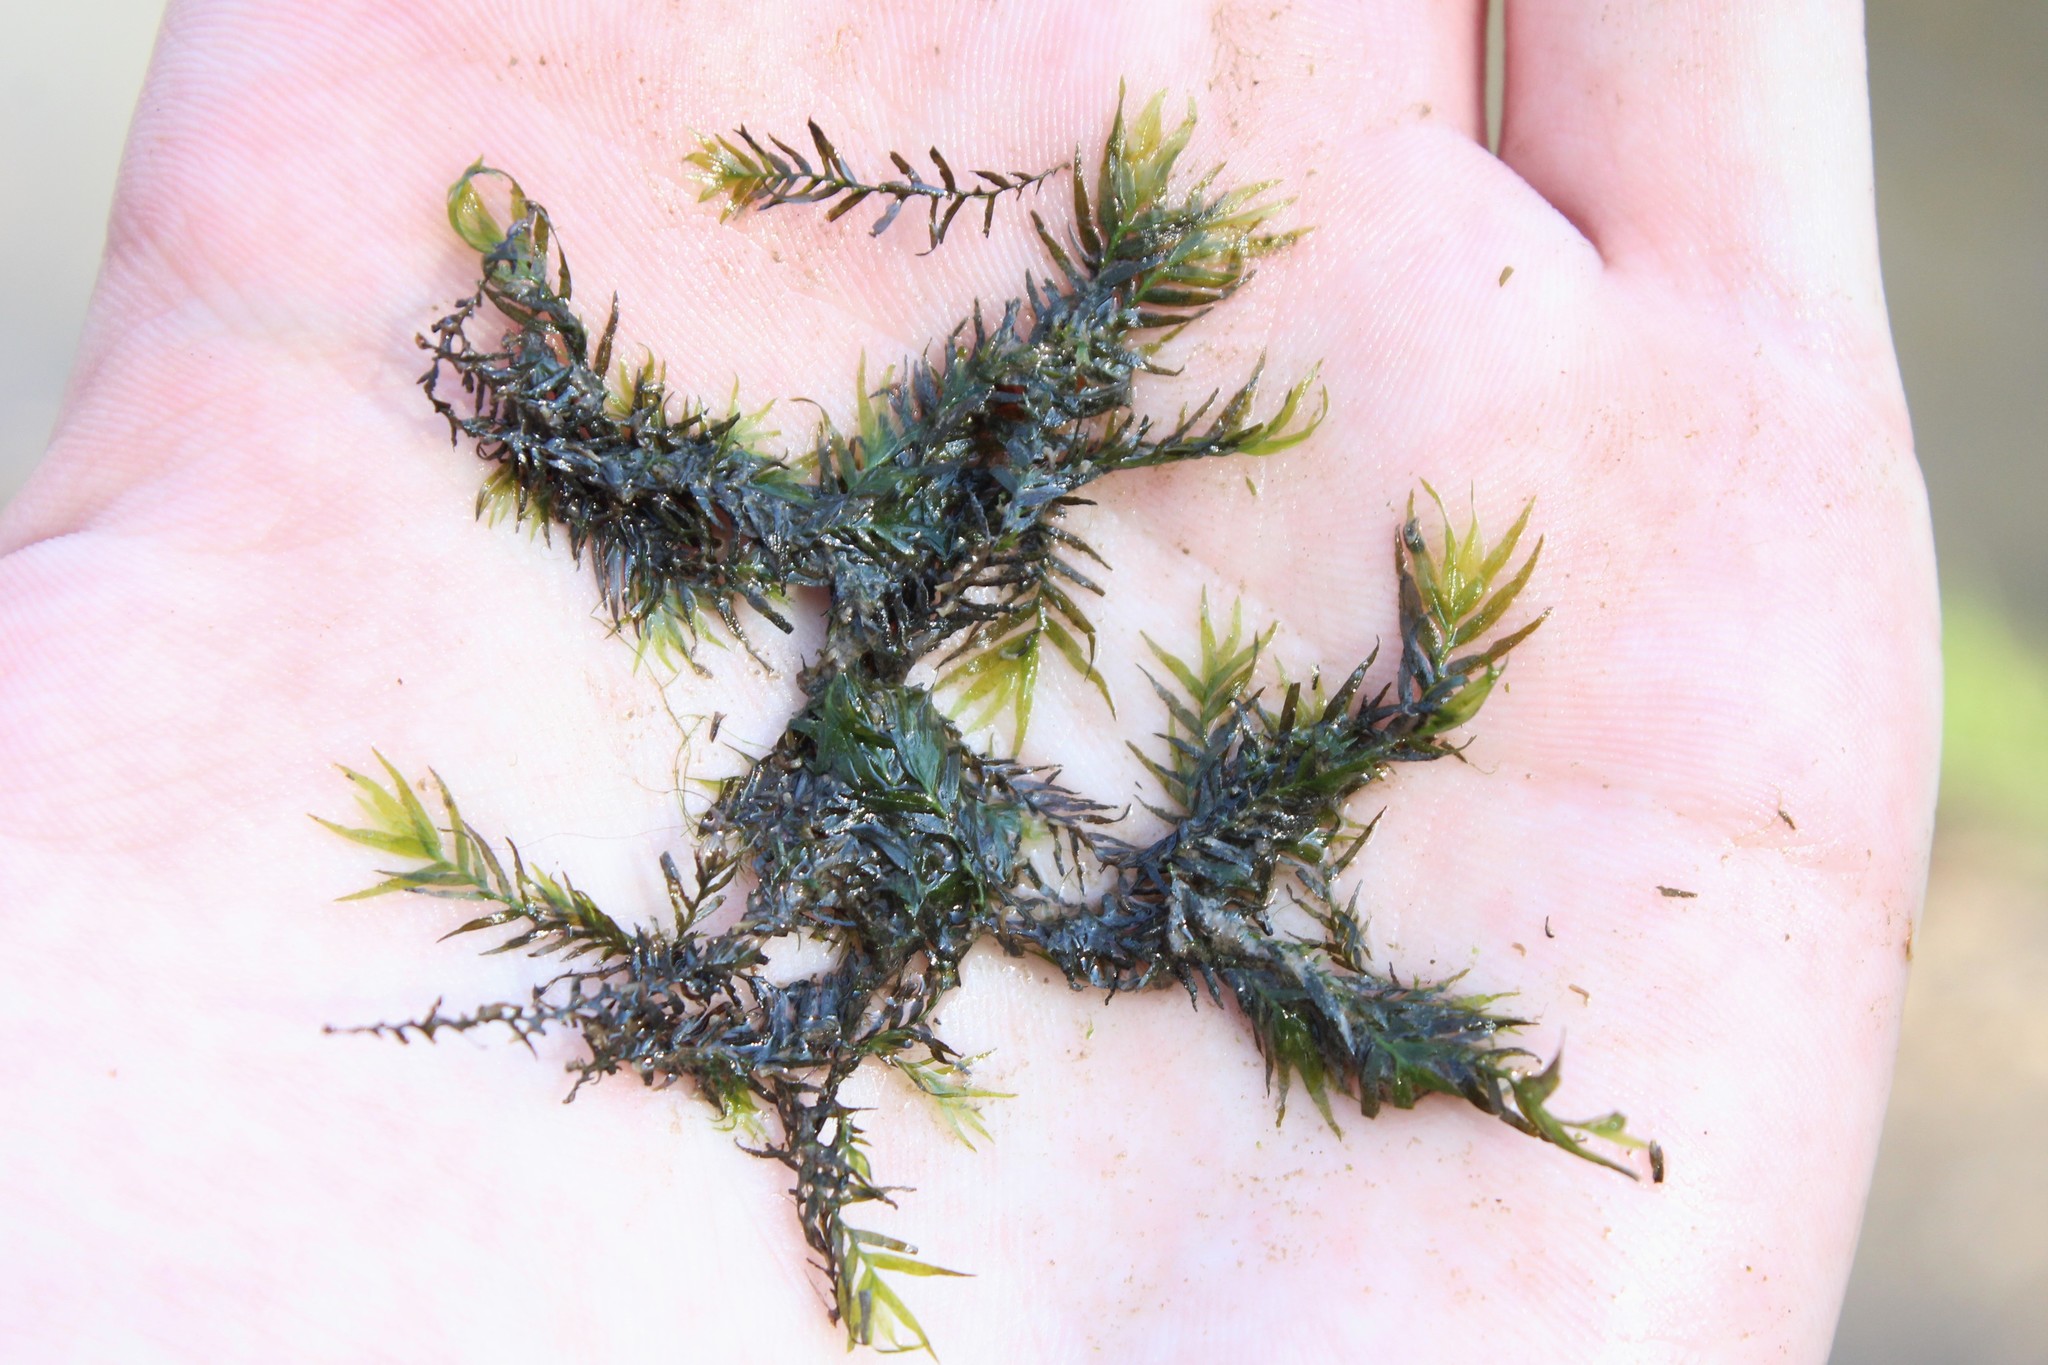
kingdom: Plantae
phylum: Bryophyta
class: Bryopsida
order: Dicranales
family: Fissidentaceae
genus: Fissidens
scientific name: Fissidens fontanus
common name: Fountain pocket-moss
